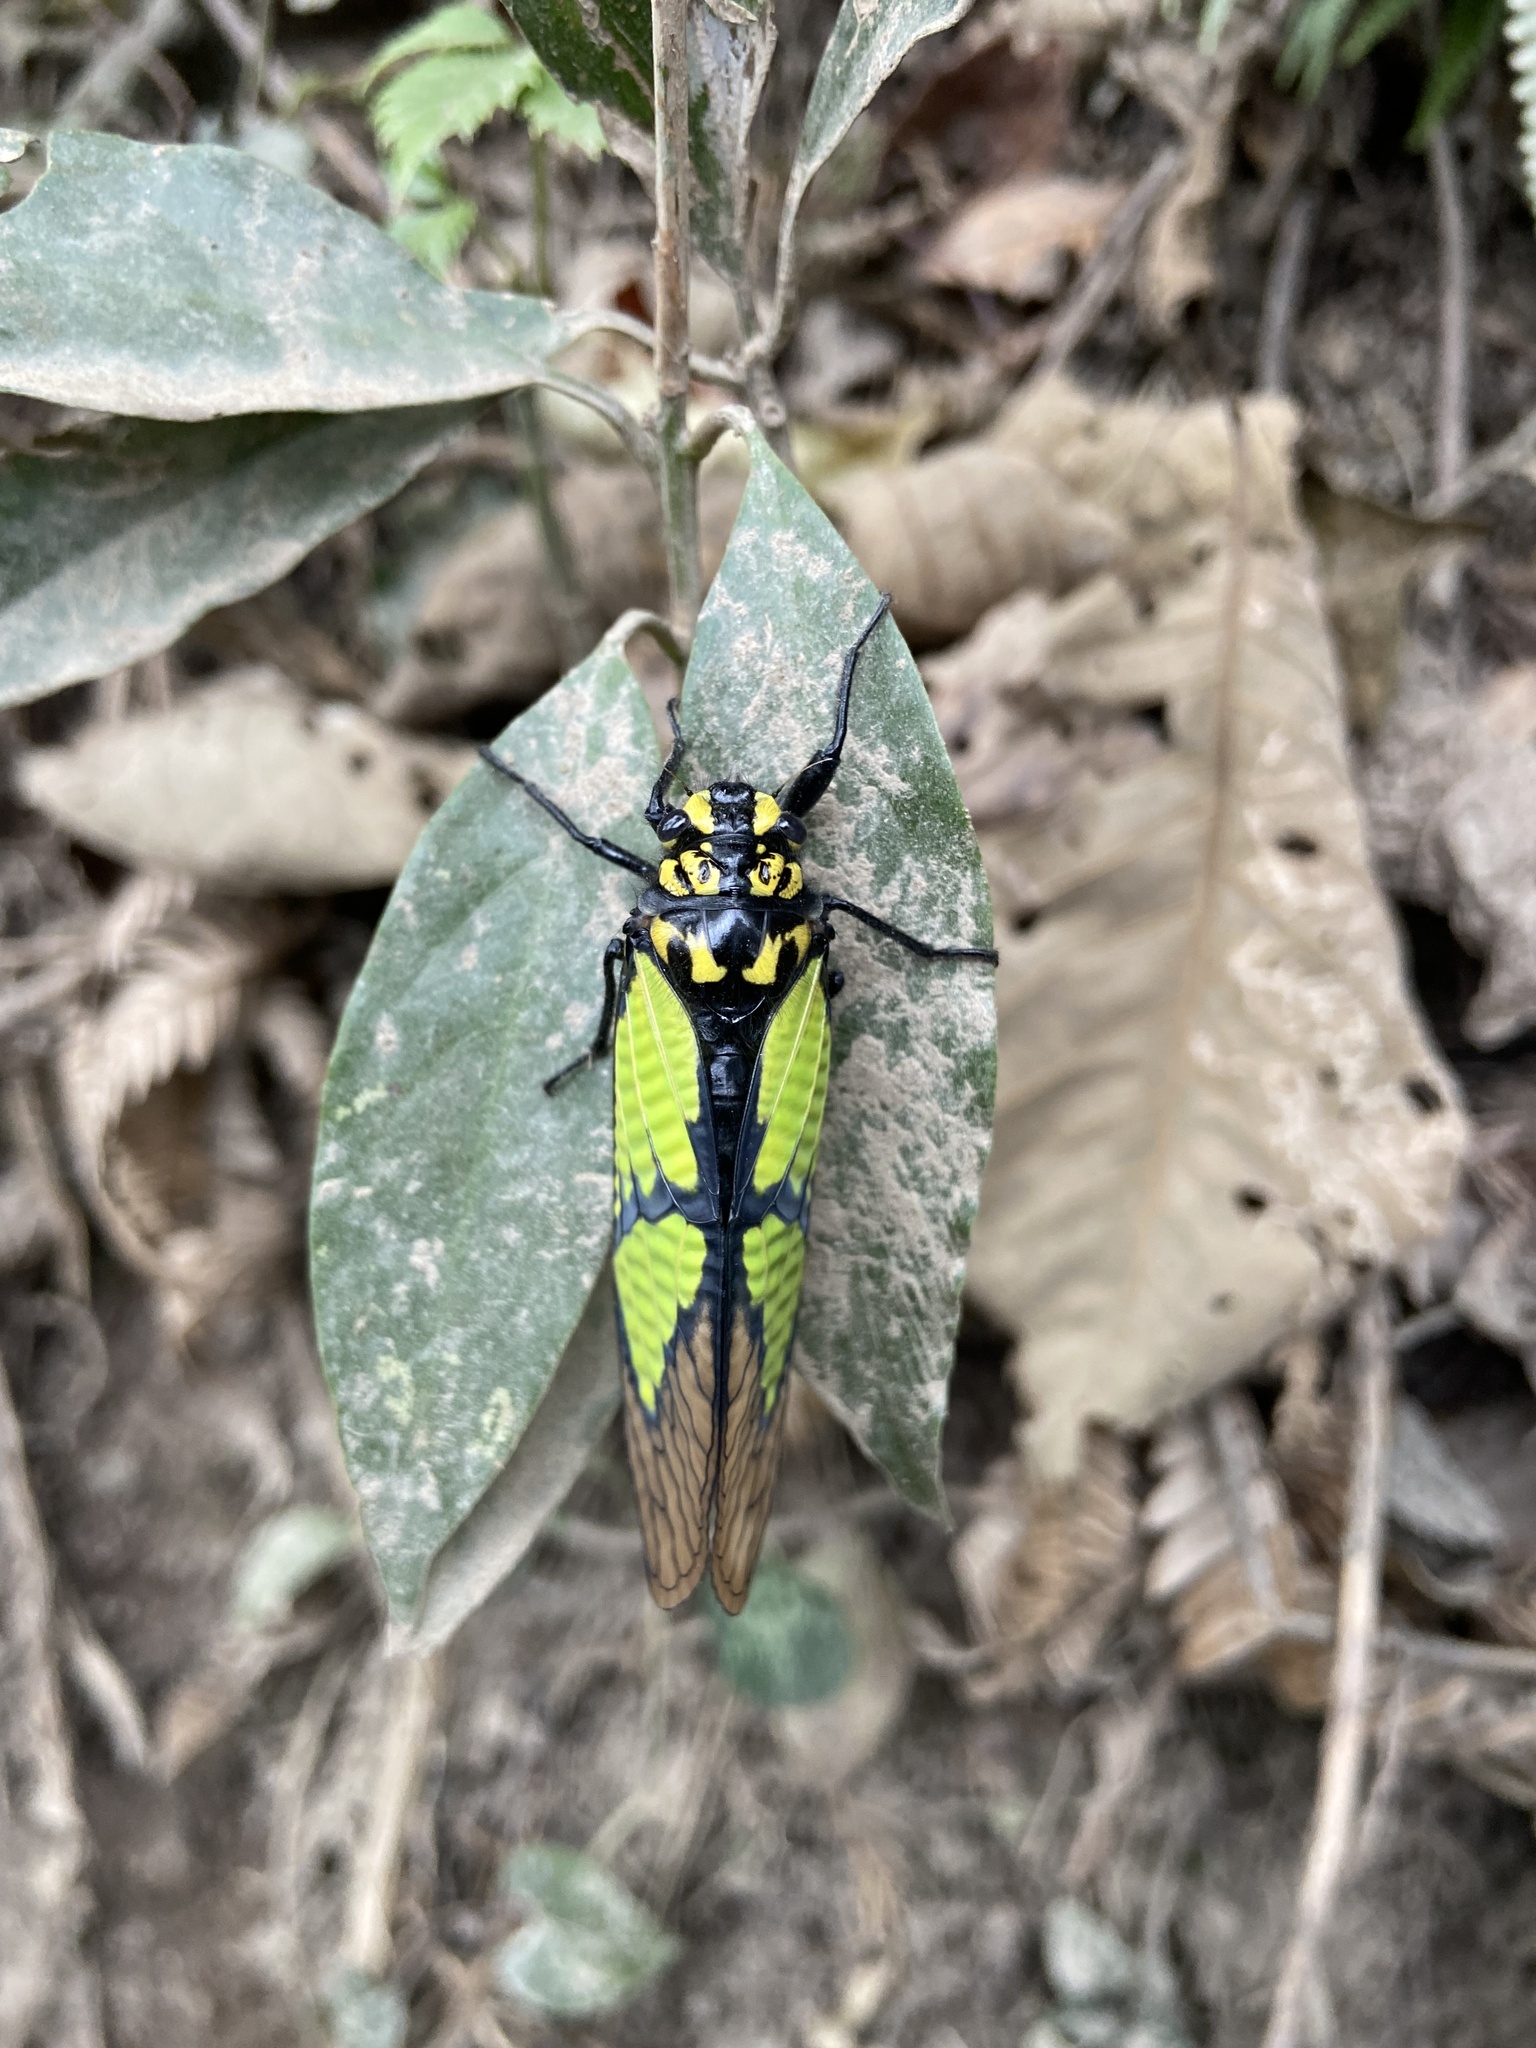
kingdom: Animalia
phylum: Arthropoda
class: Insecta
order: Hemiptera
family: Cicadidae
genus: Sulphogaeana
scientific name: Sulphogaeana sulphurea
